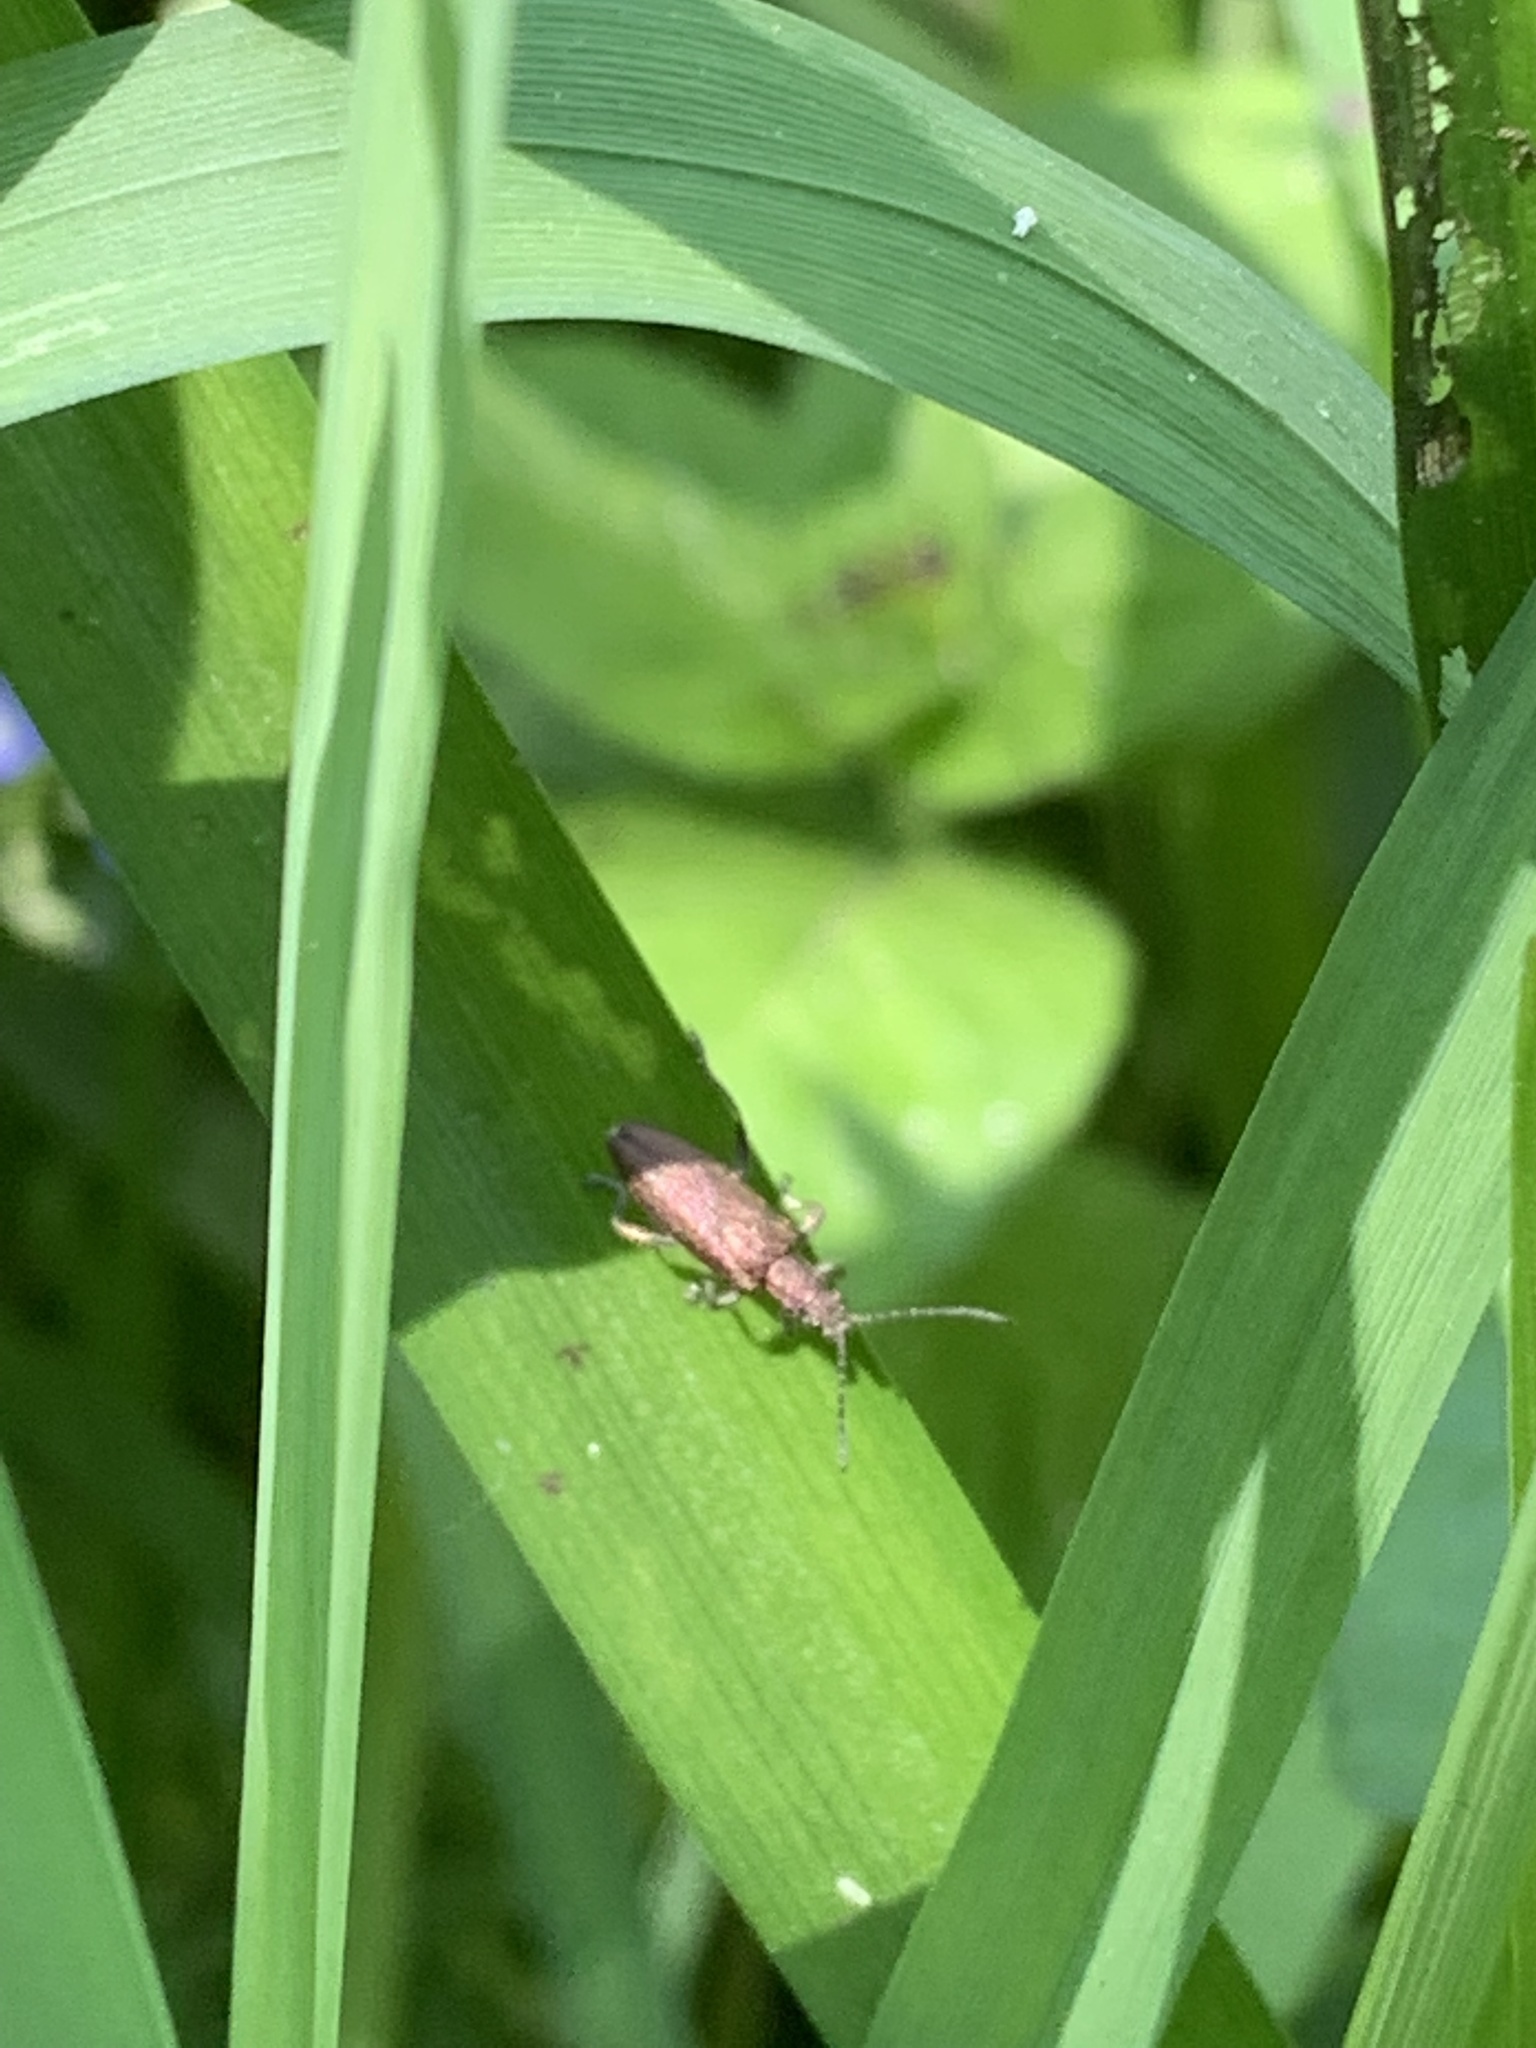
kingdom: Animalia
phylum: Arthropoda
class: Insecta
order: Coleoptera
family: Chrysomelidae
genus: Donacia
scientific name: Donacia simplex
